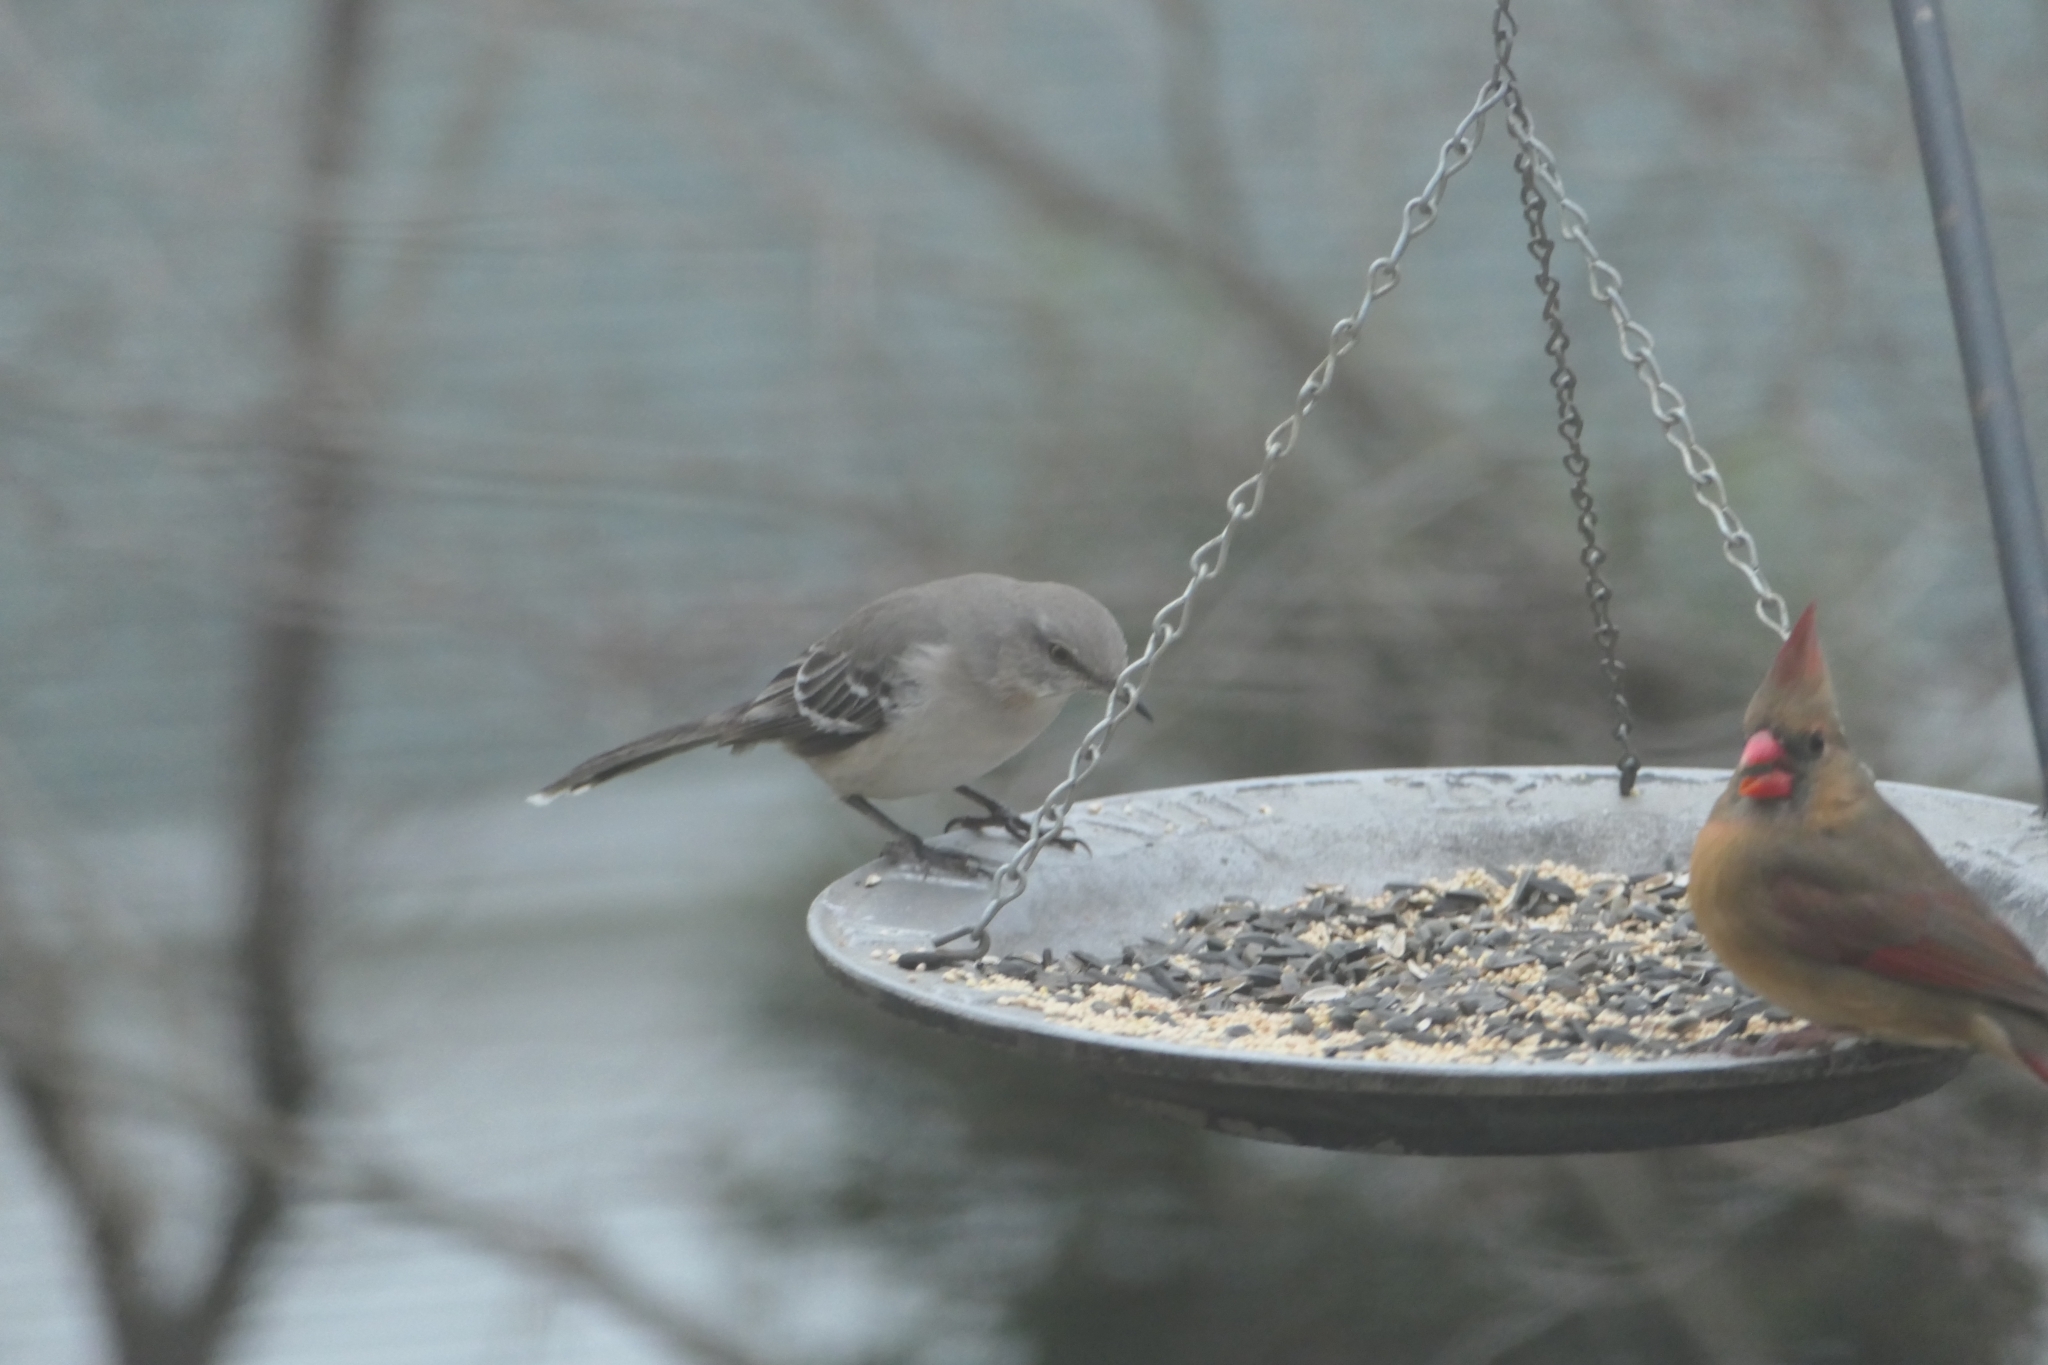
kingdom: Animalia
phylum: Chordata
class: Aves
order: Passeriformes
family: Mimidae
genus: Mimus
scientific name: Mimus polyglottos
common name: Northern mockingbird
